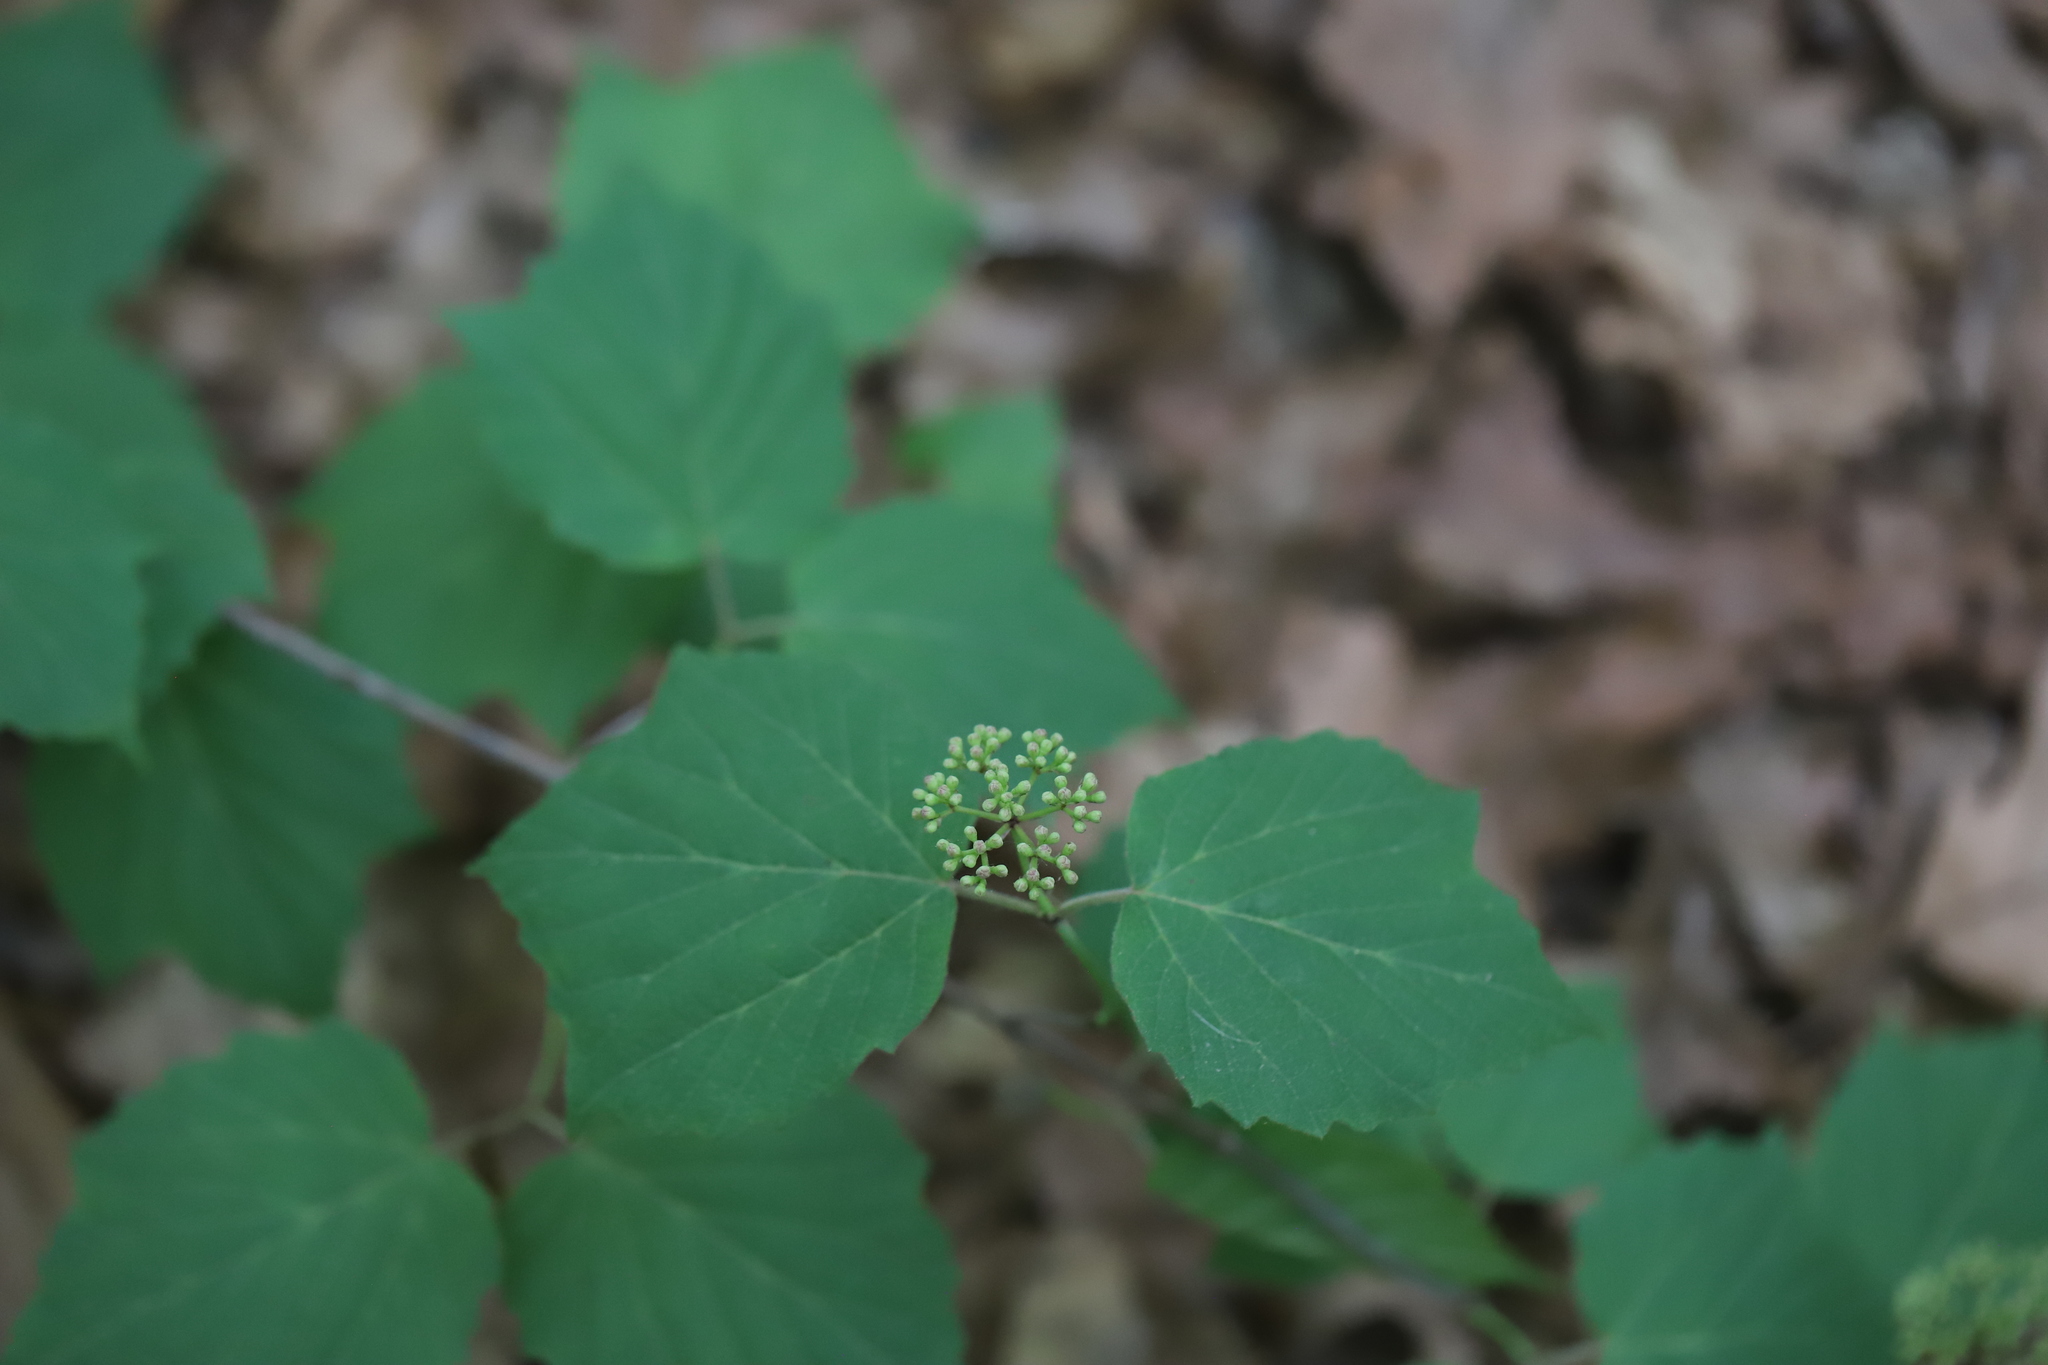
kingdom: Plantae
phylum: Tracheophyta
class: Magnoliopsida
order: Dipsacales
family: Viburnaceae
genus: Viburnum
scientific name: Viburnum acerifolium
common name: Dockmackie
